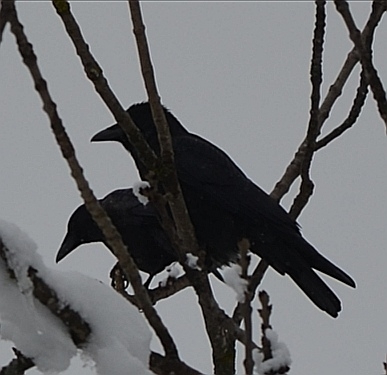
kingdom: Animalia
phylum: Chordata
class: Aves
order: Passeriformes
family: Corvidae
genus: Corvus
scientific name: Corvus corone
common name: Carrion crow
